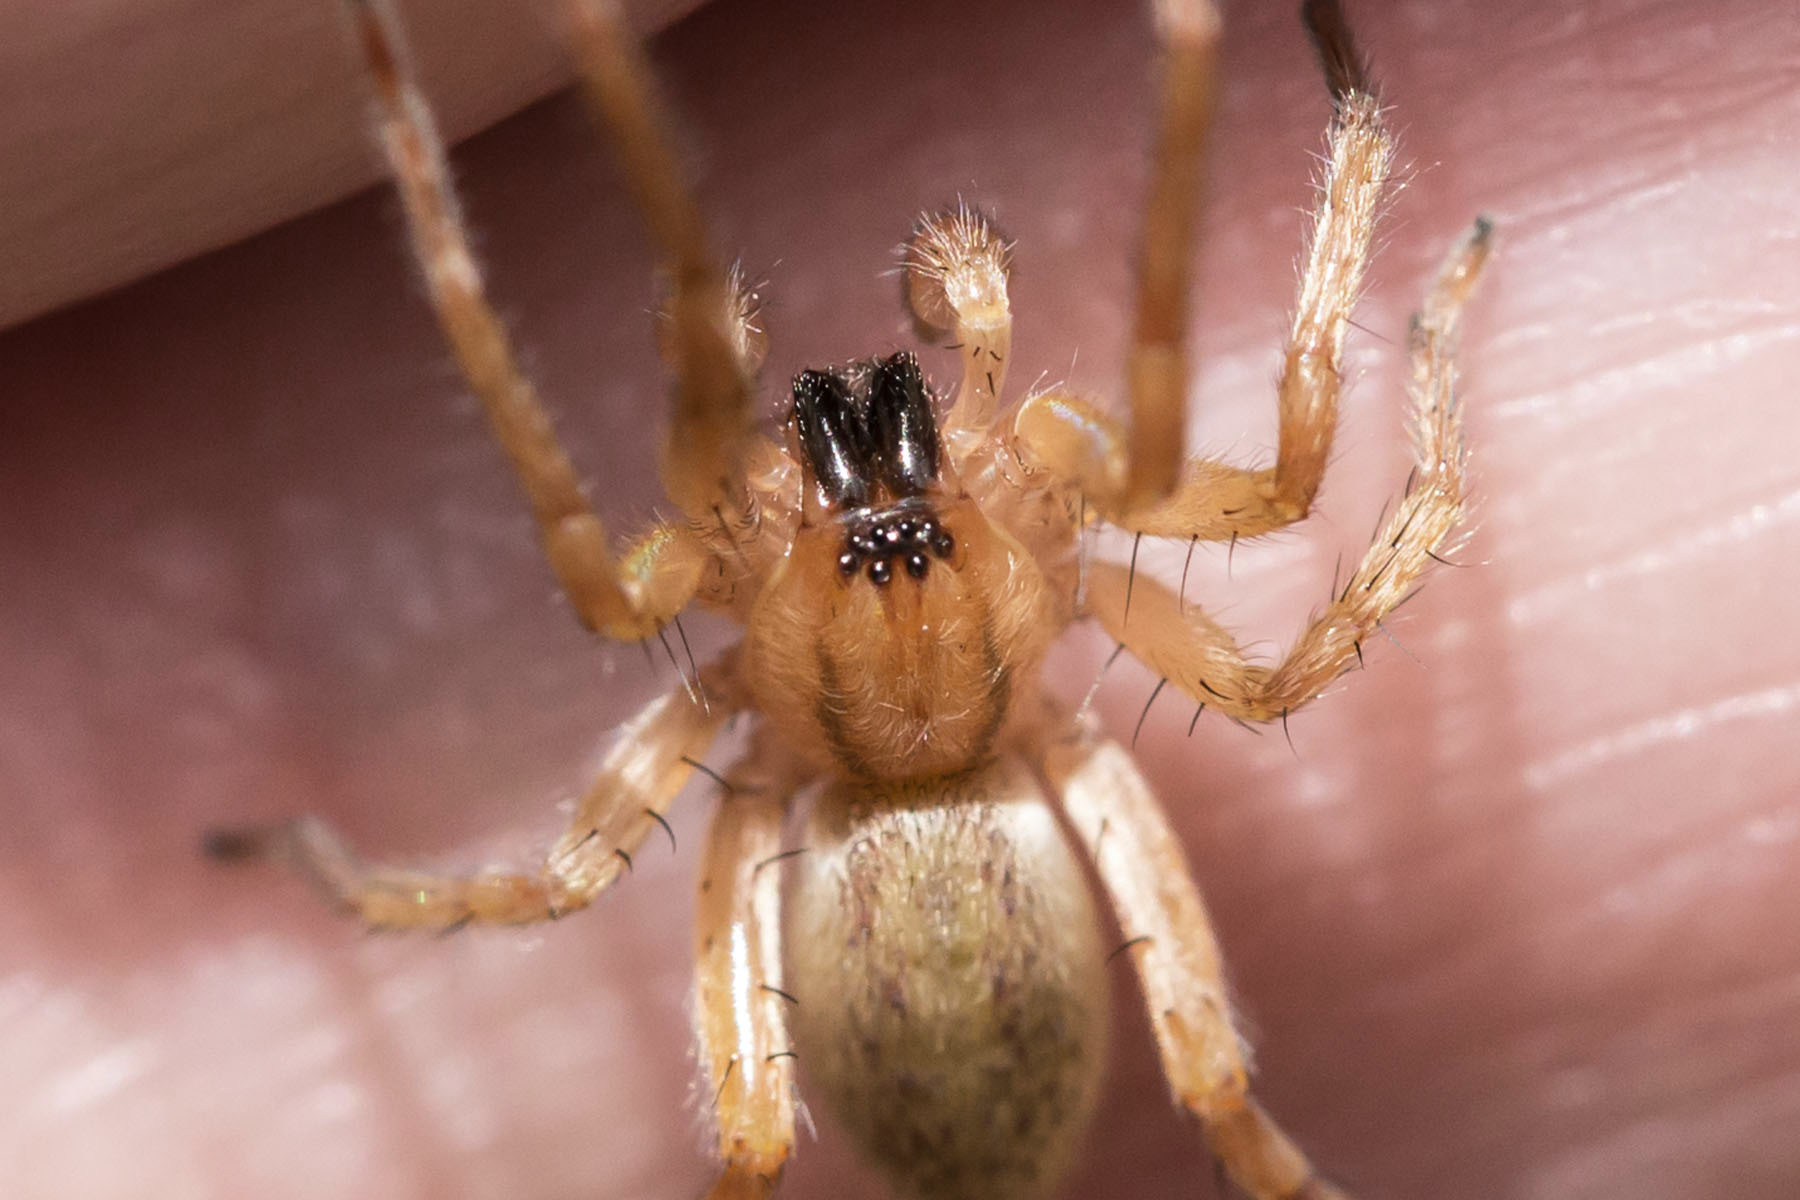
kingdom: Animalia
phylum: Arthropoda
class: Arachnida
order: Araneae
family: Anyphaenidae
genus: Hibana
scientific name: Hibana gracilis
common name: Garden ghost spider
